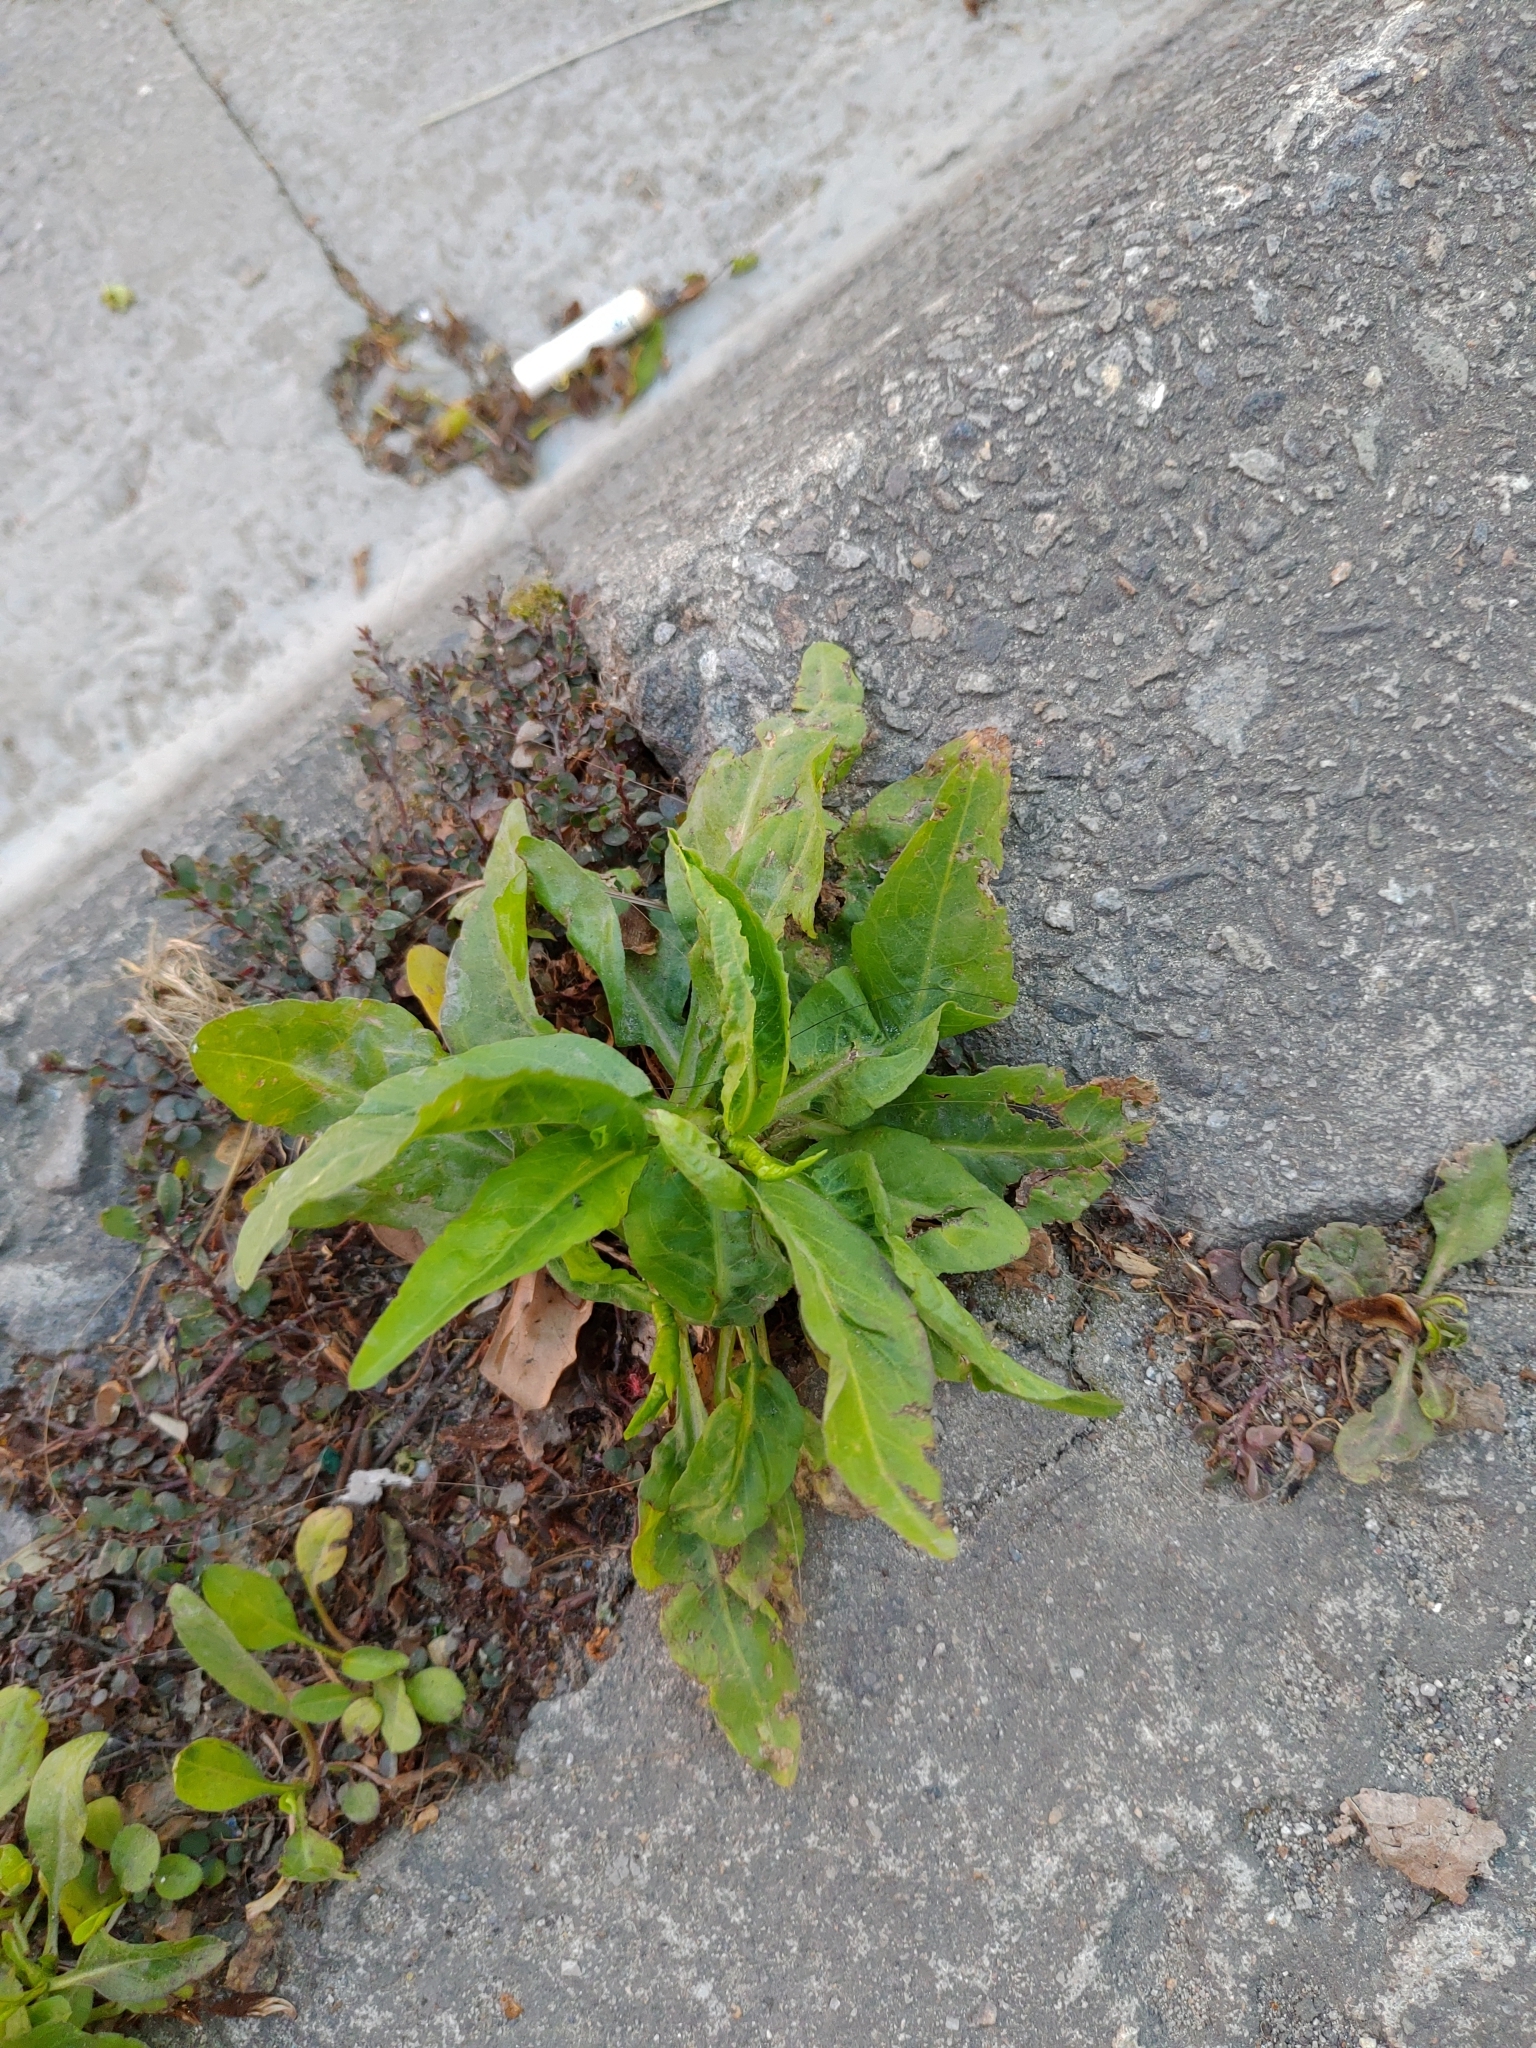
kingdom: Plantae
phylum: Tracheophyta
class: Magnoliopsida
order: Asterales
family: Asteraceae
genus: Symphyotrichum
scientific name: Symphyotrichum subulatum
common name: Annual saltmarsh aster
